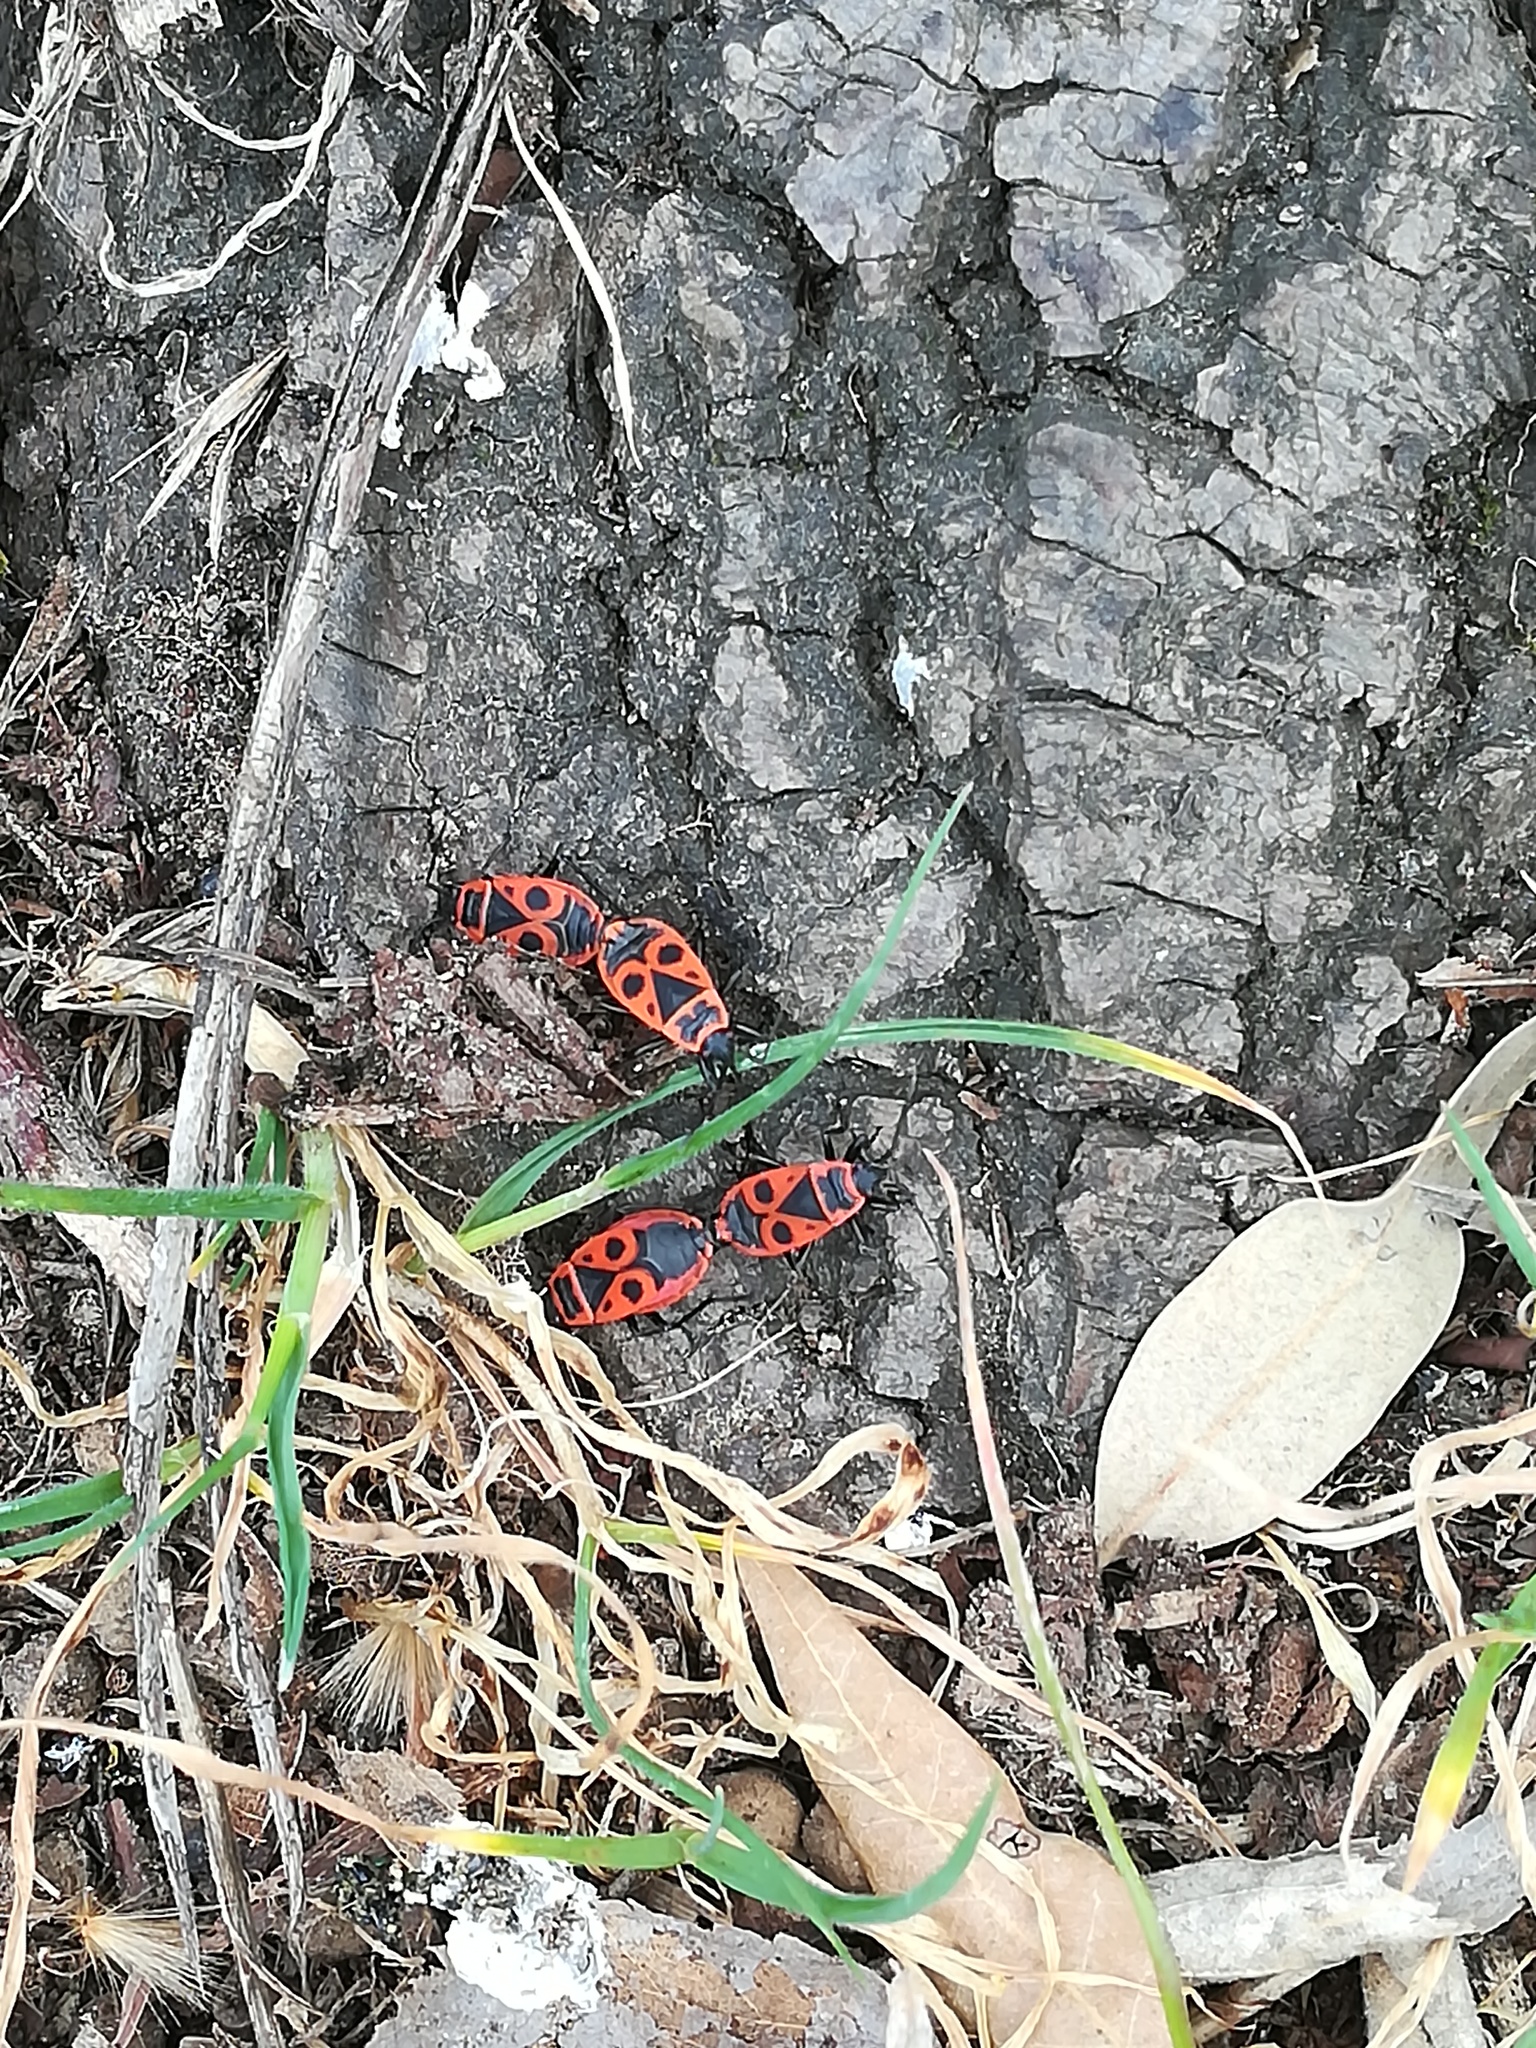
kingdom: Animalia
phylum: Arthropoda
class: Insecta
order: Hemiptera
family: Pyrrhocoridae
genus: Pyrrhocoris
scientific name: Pyrrhocoris apterus
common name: Firebug
